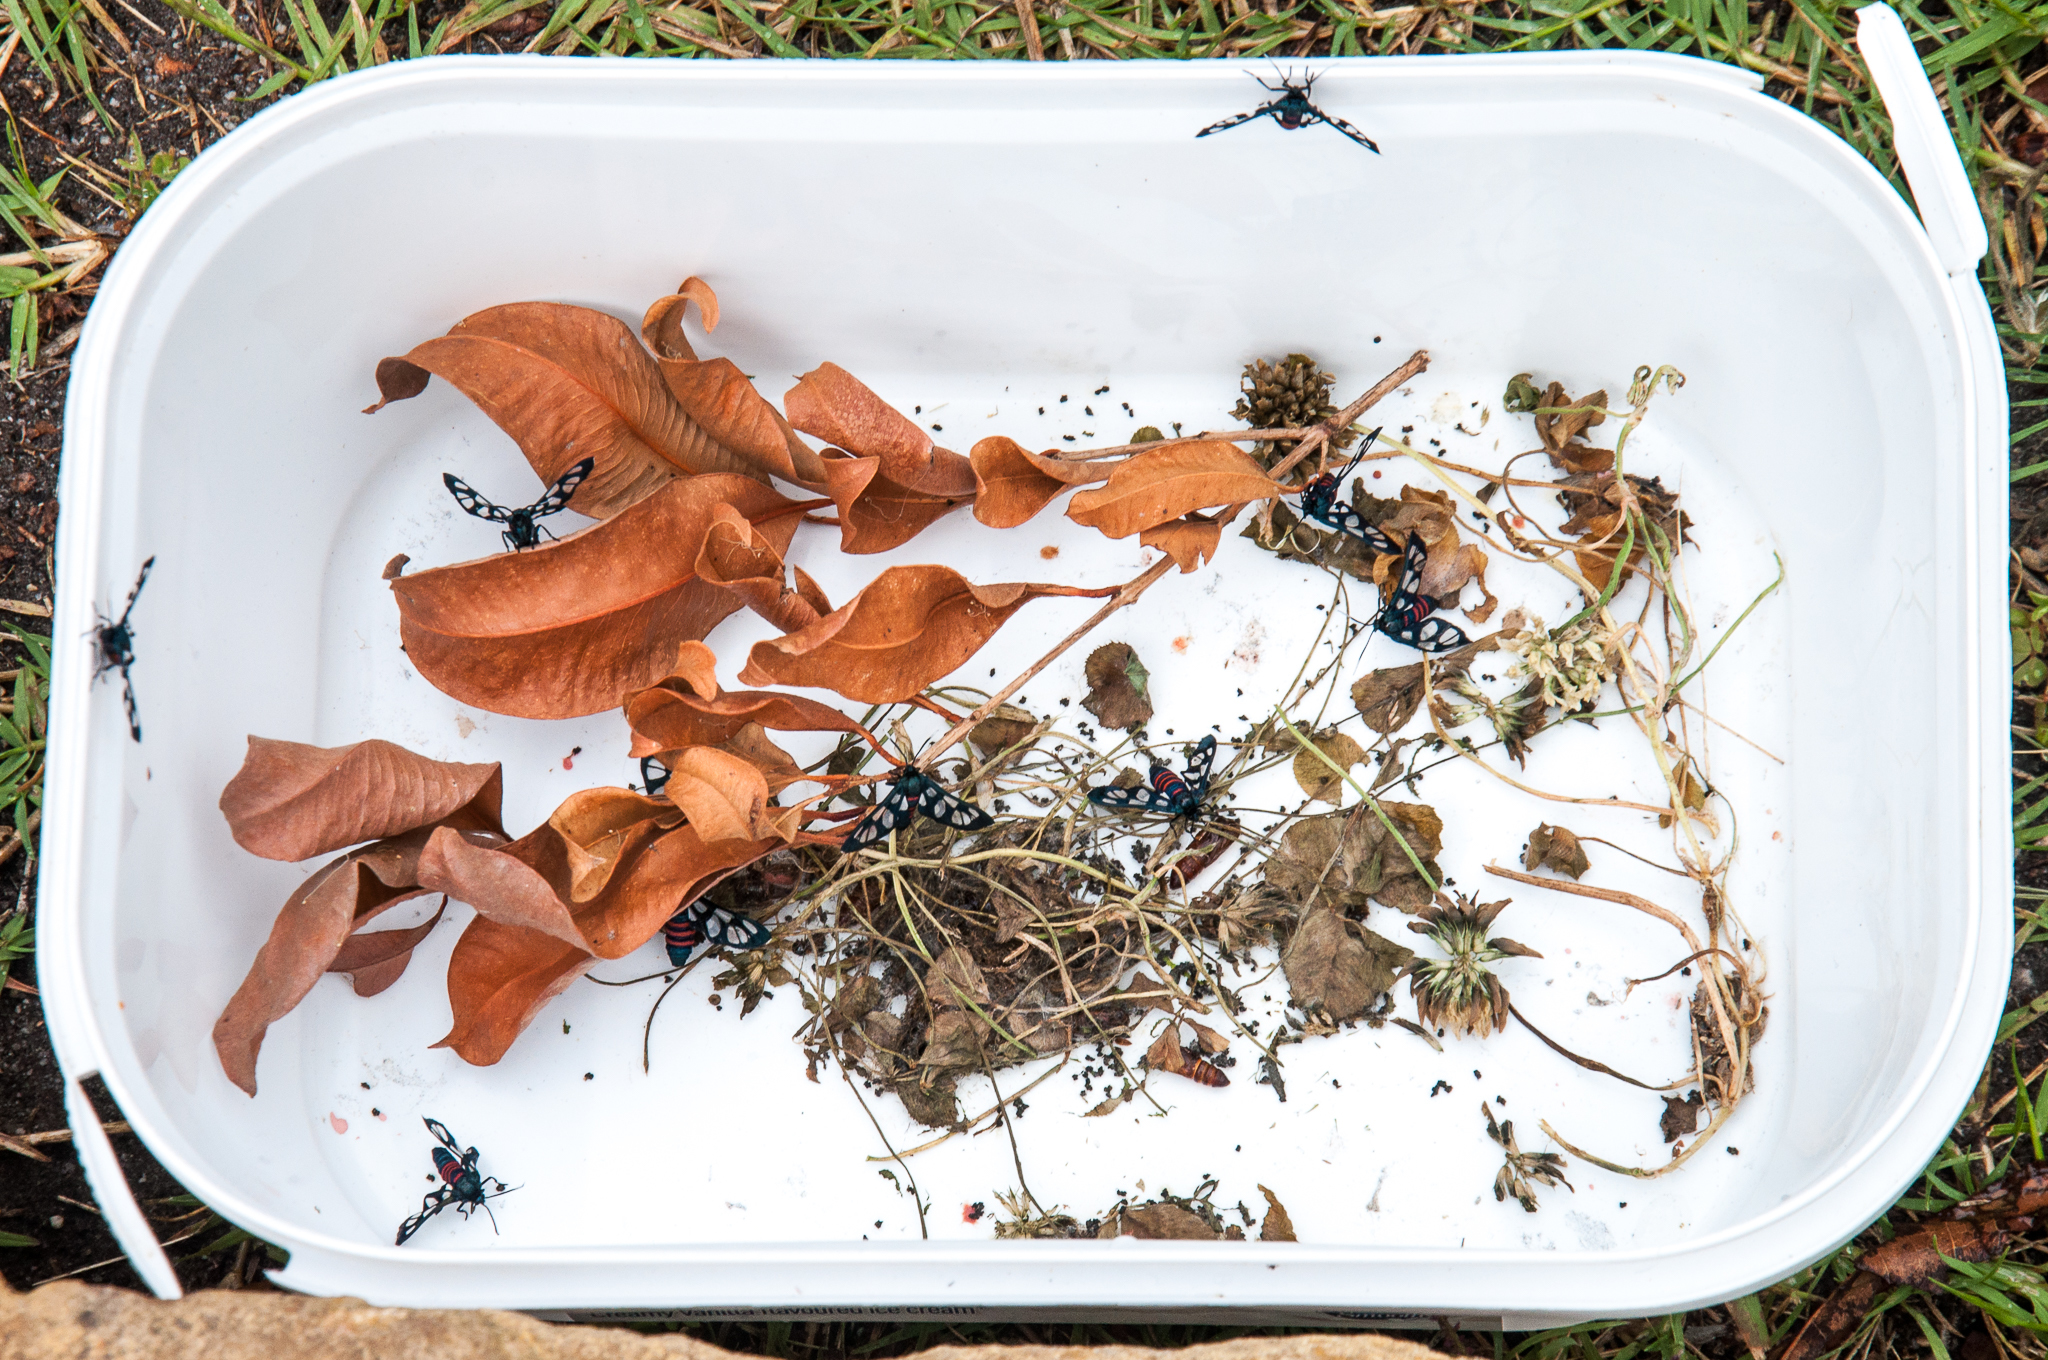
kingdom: Animalia
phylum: Arthropoda
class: Insecta
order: Lepidoptera
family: Erebidae
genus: Amata
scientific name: Amata cerbera
